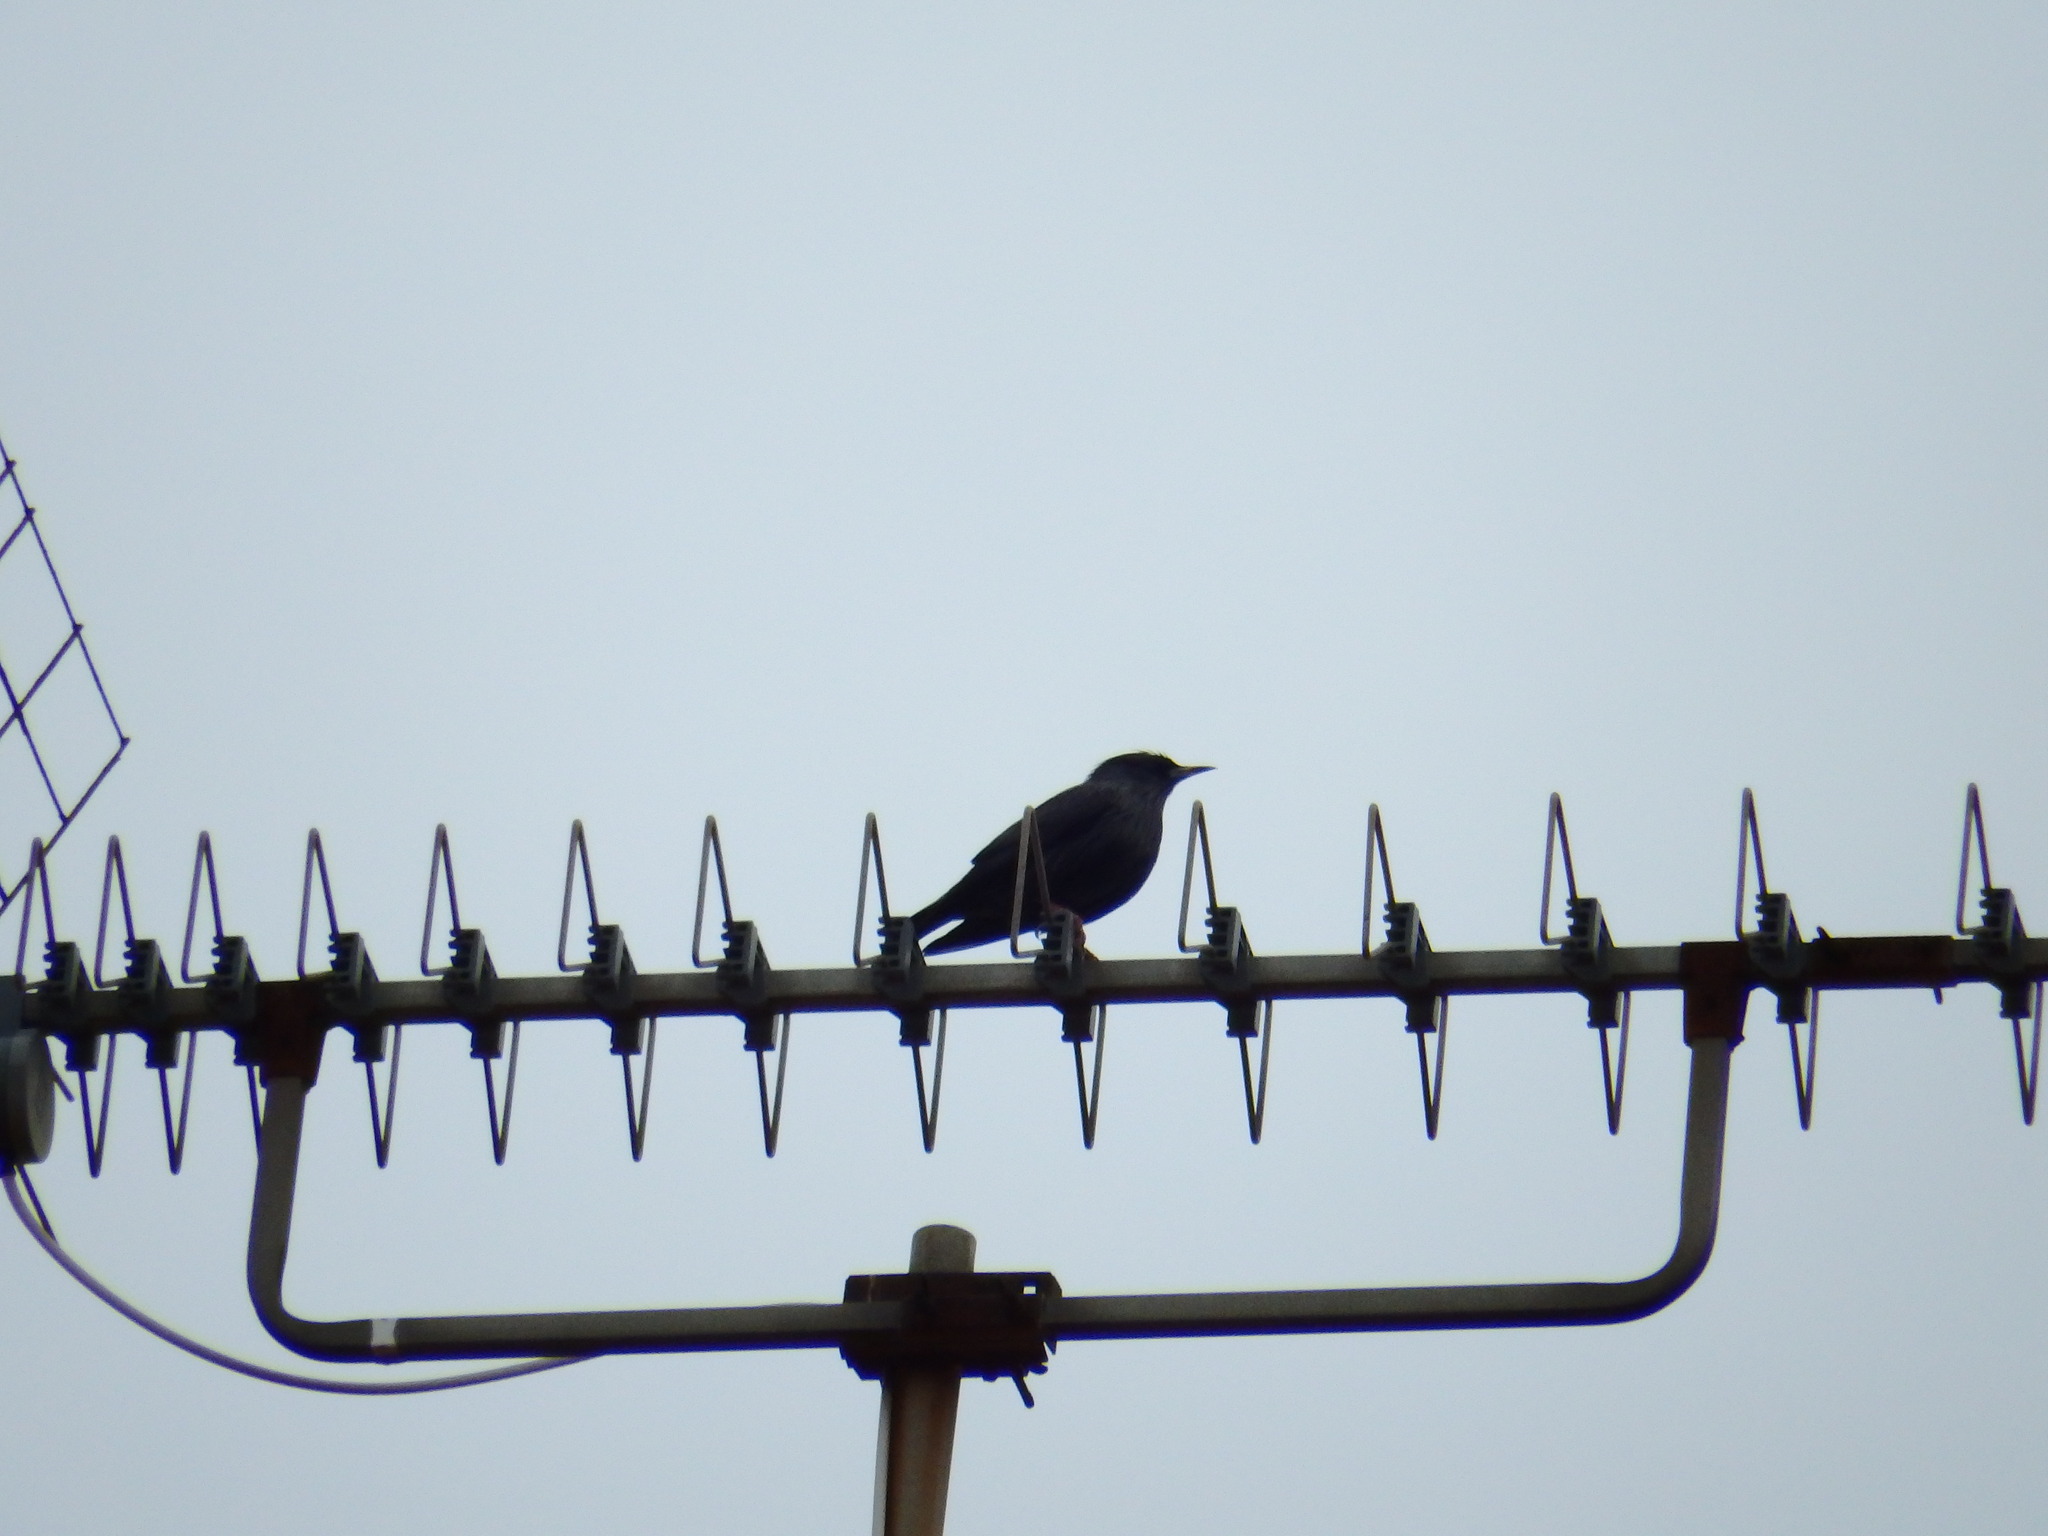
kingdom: Animalia
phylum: Chordata
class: Aves
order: Passeriformes
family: Sturnidae
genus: Sturnus
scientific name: Sturnus unicolor
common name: Spotless starling
